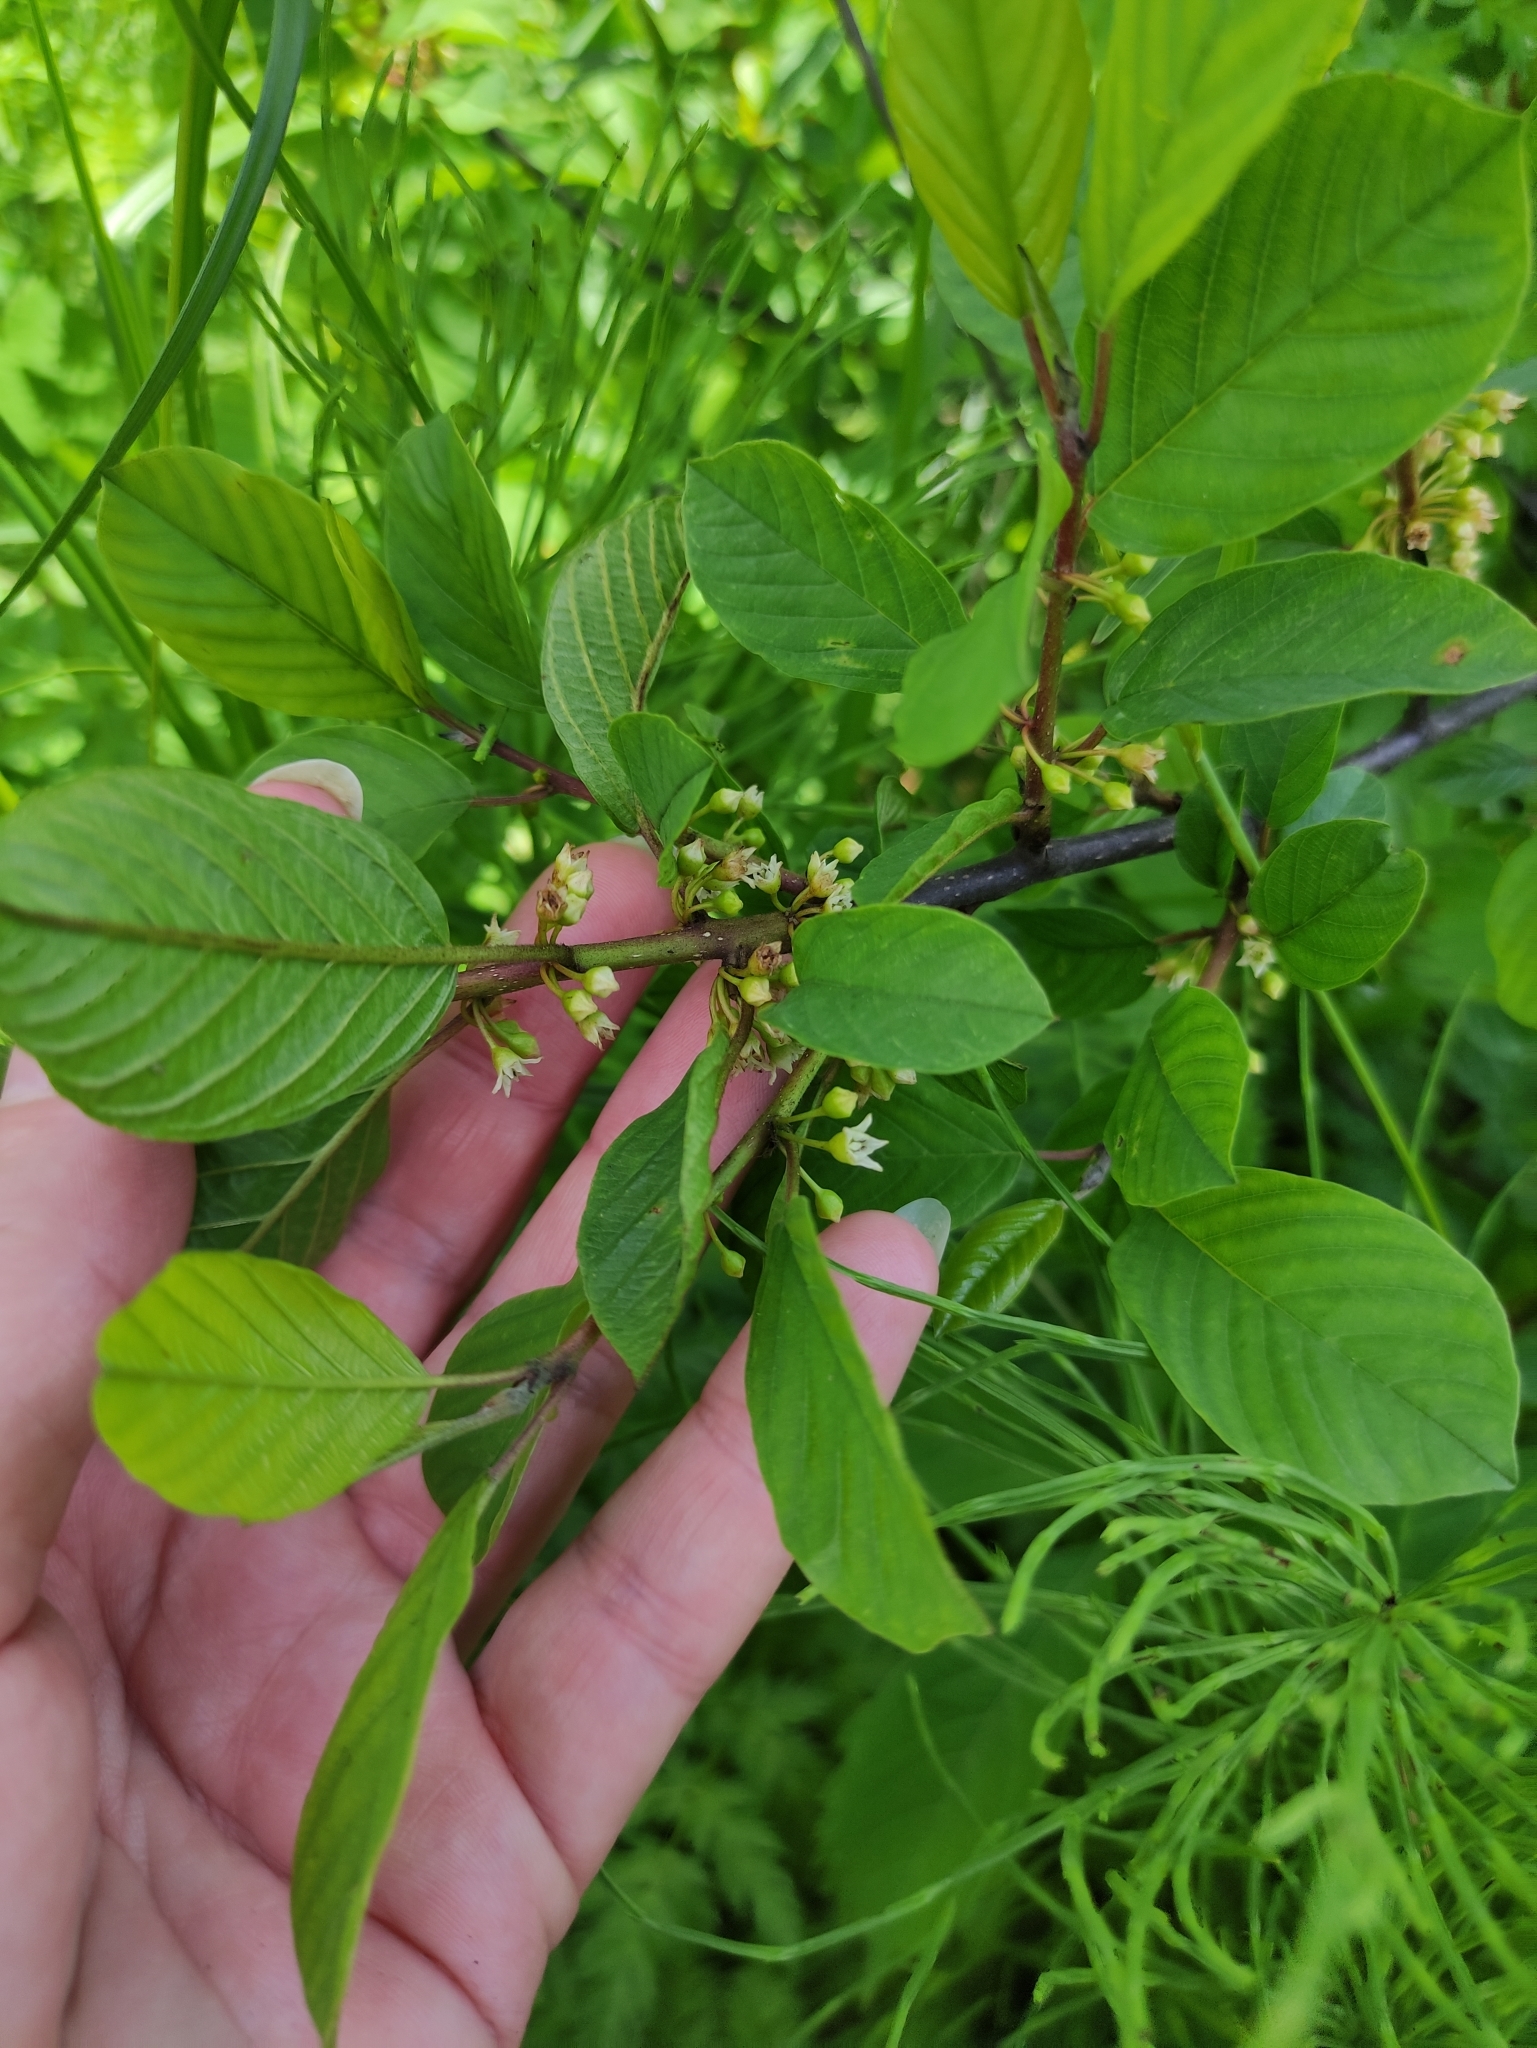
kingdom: Plantae
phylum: Tracheophyta
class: Magnoliopsida
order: Rosales
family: Rhamnaceae
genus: Frangula
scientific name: Frangula alnus
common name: Alder buckthorn
